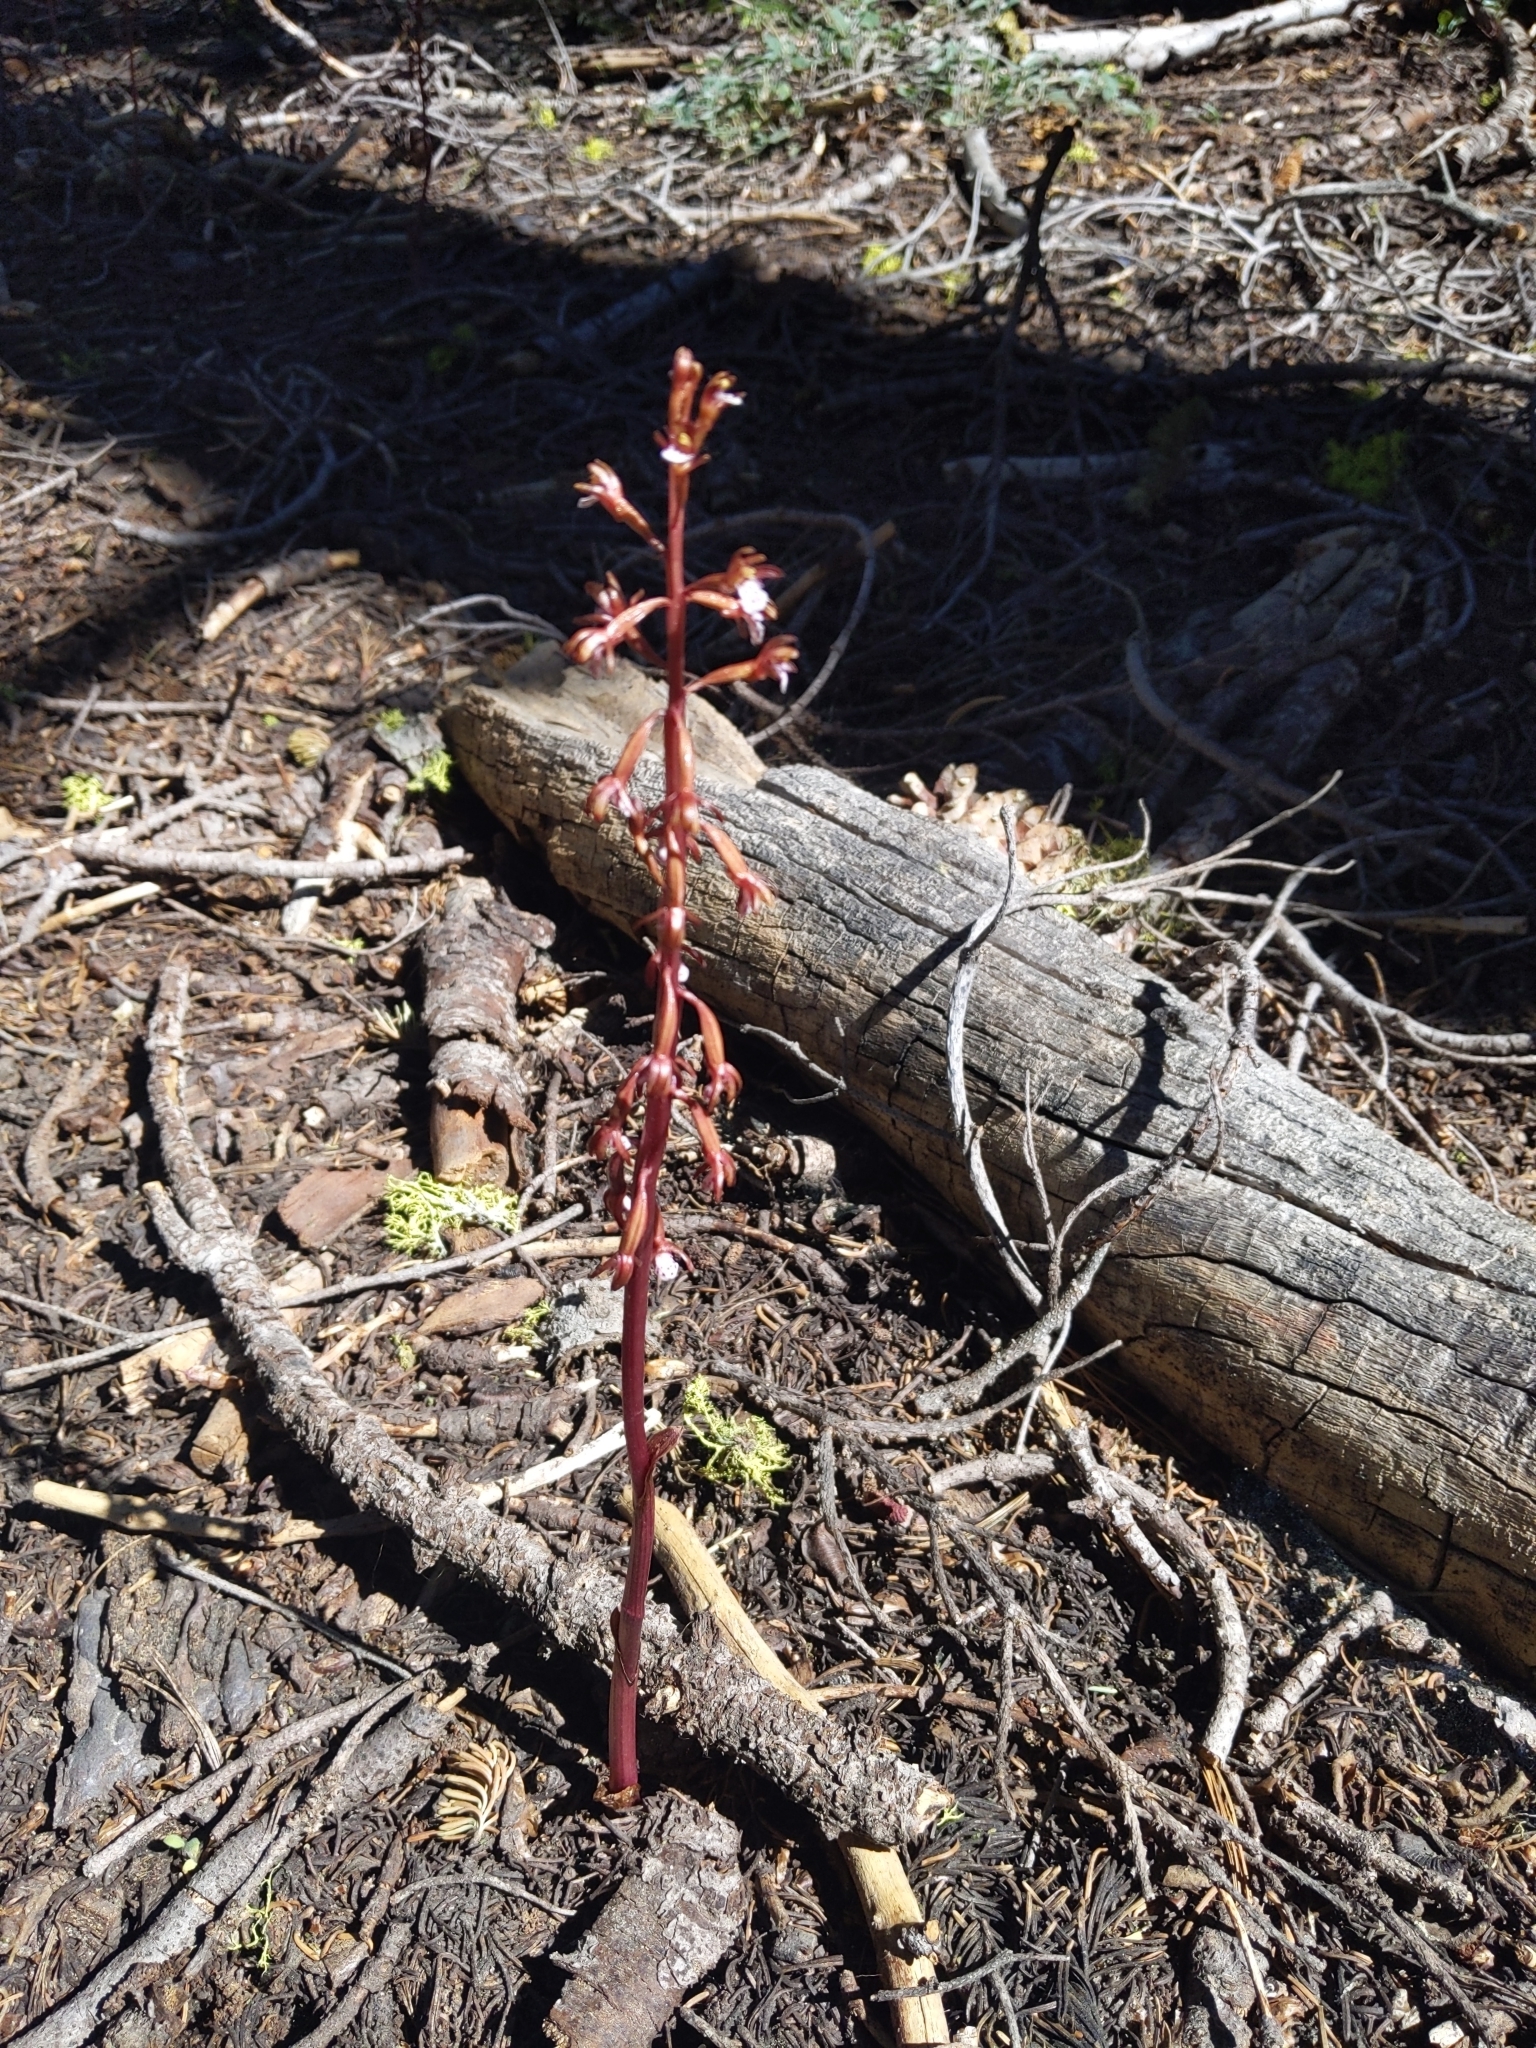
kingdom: Plantae
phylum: Tracheophyta
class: Liliopsida
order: Asparagales
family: Orchidaceae
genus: Corallorhiza
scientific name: Corallorhiza maculata
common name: Spotted coralroot
